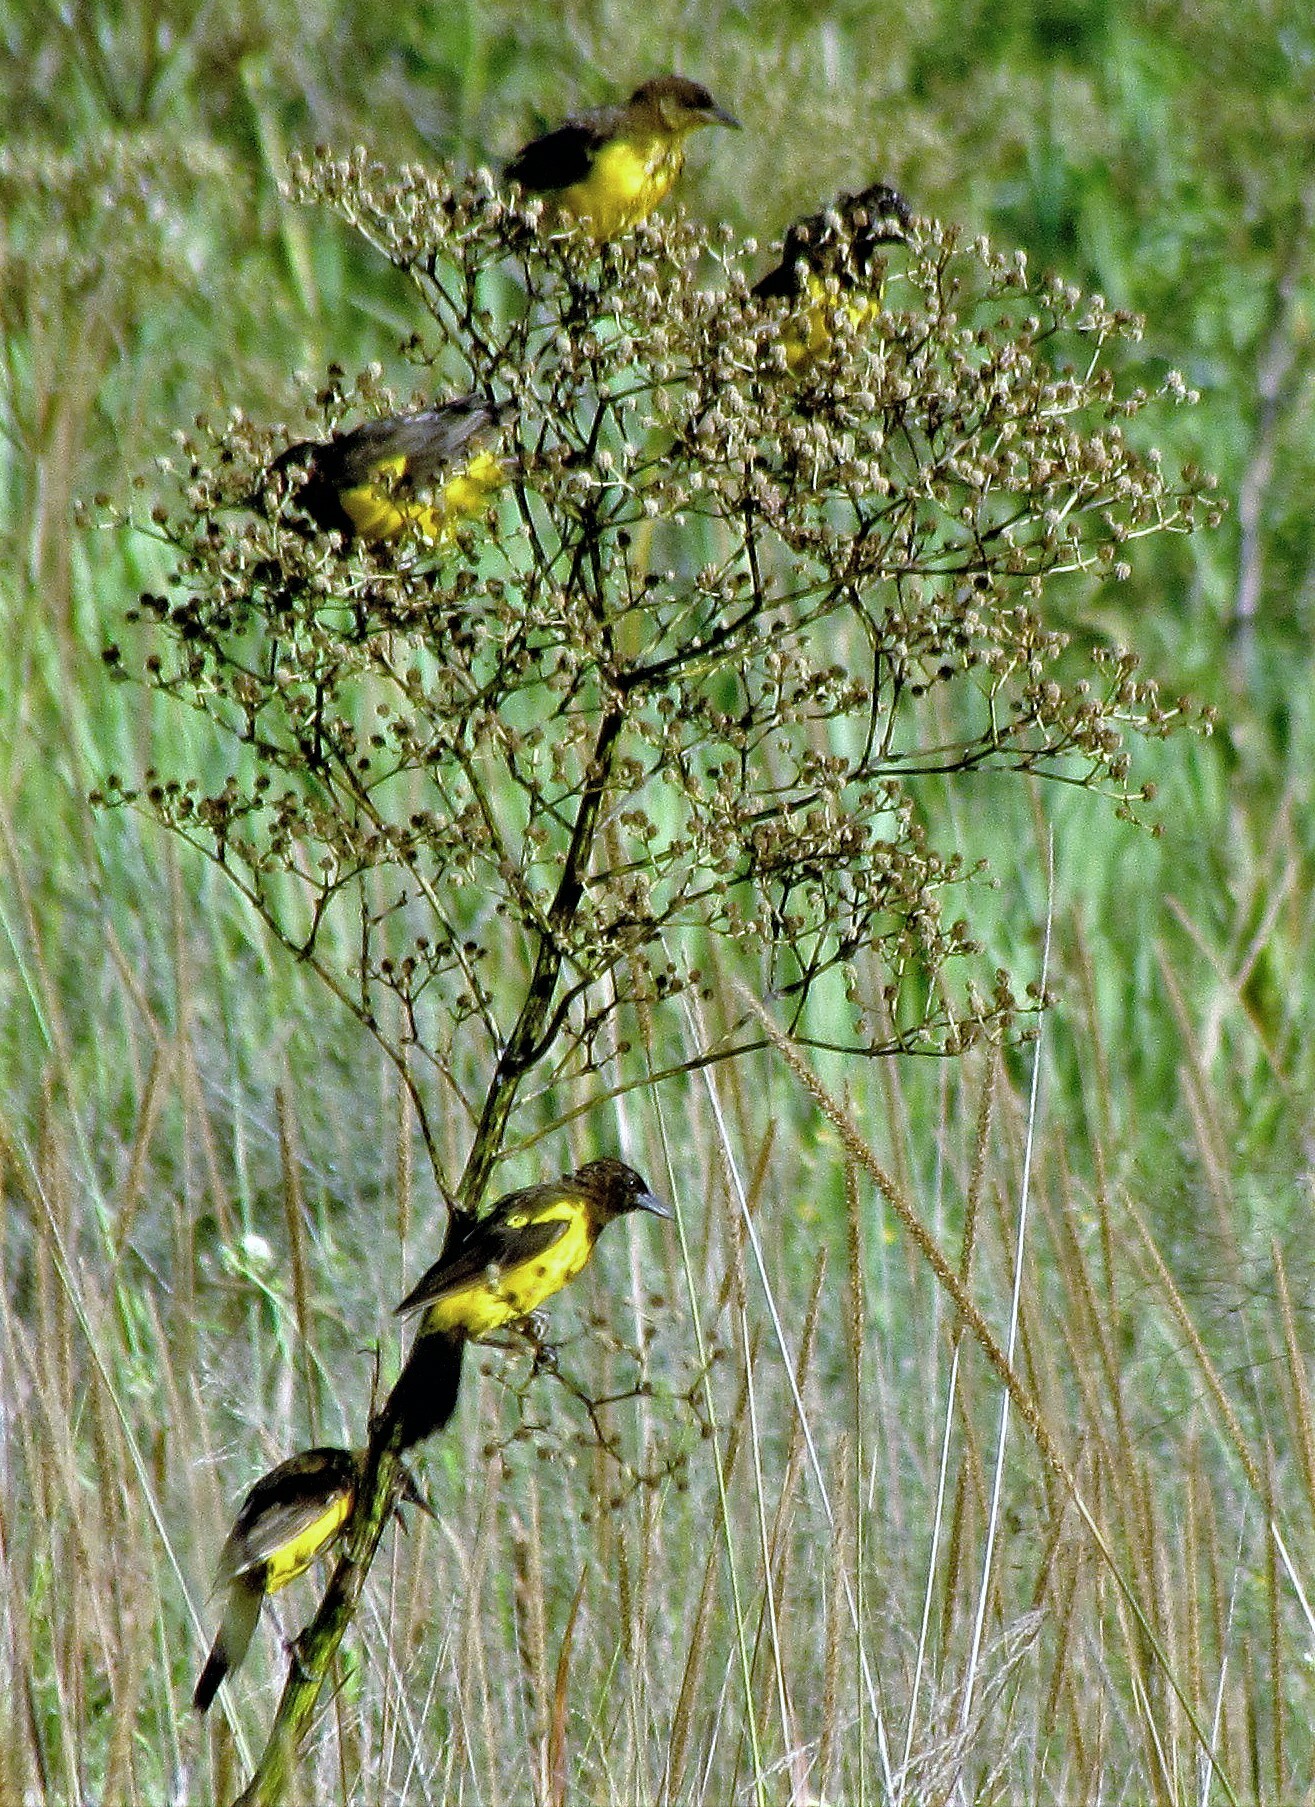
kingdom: Animalia
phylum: Chordata
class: Aves
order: Passeriformes
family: Icteridae
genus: Pseudoleistes
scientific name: Pseudoleistes guirahuro
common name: Yellow-rumped marshbird
